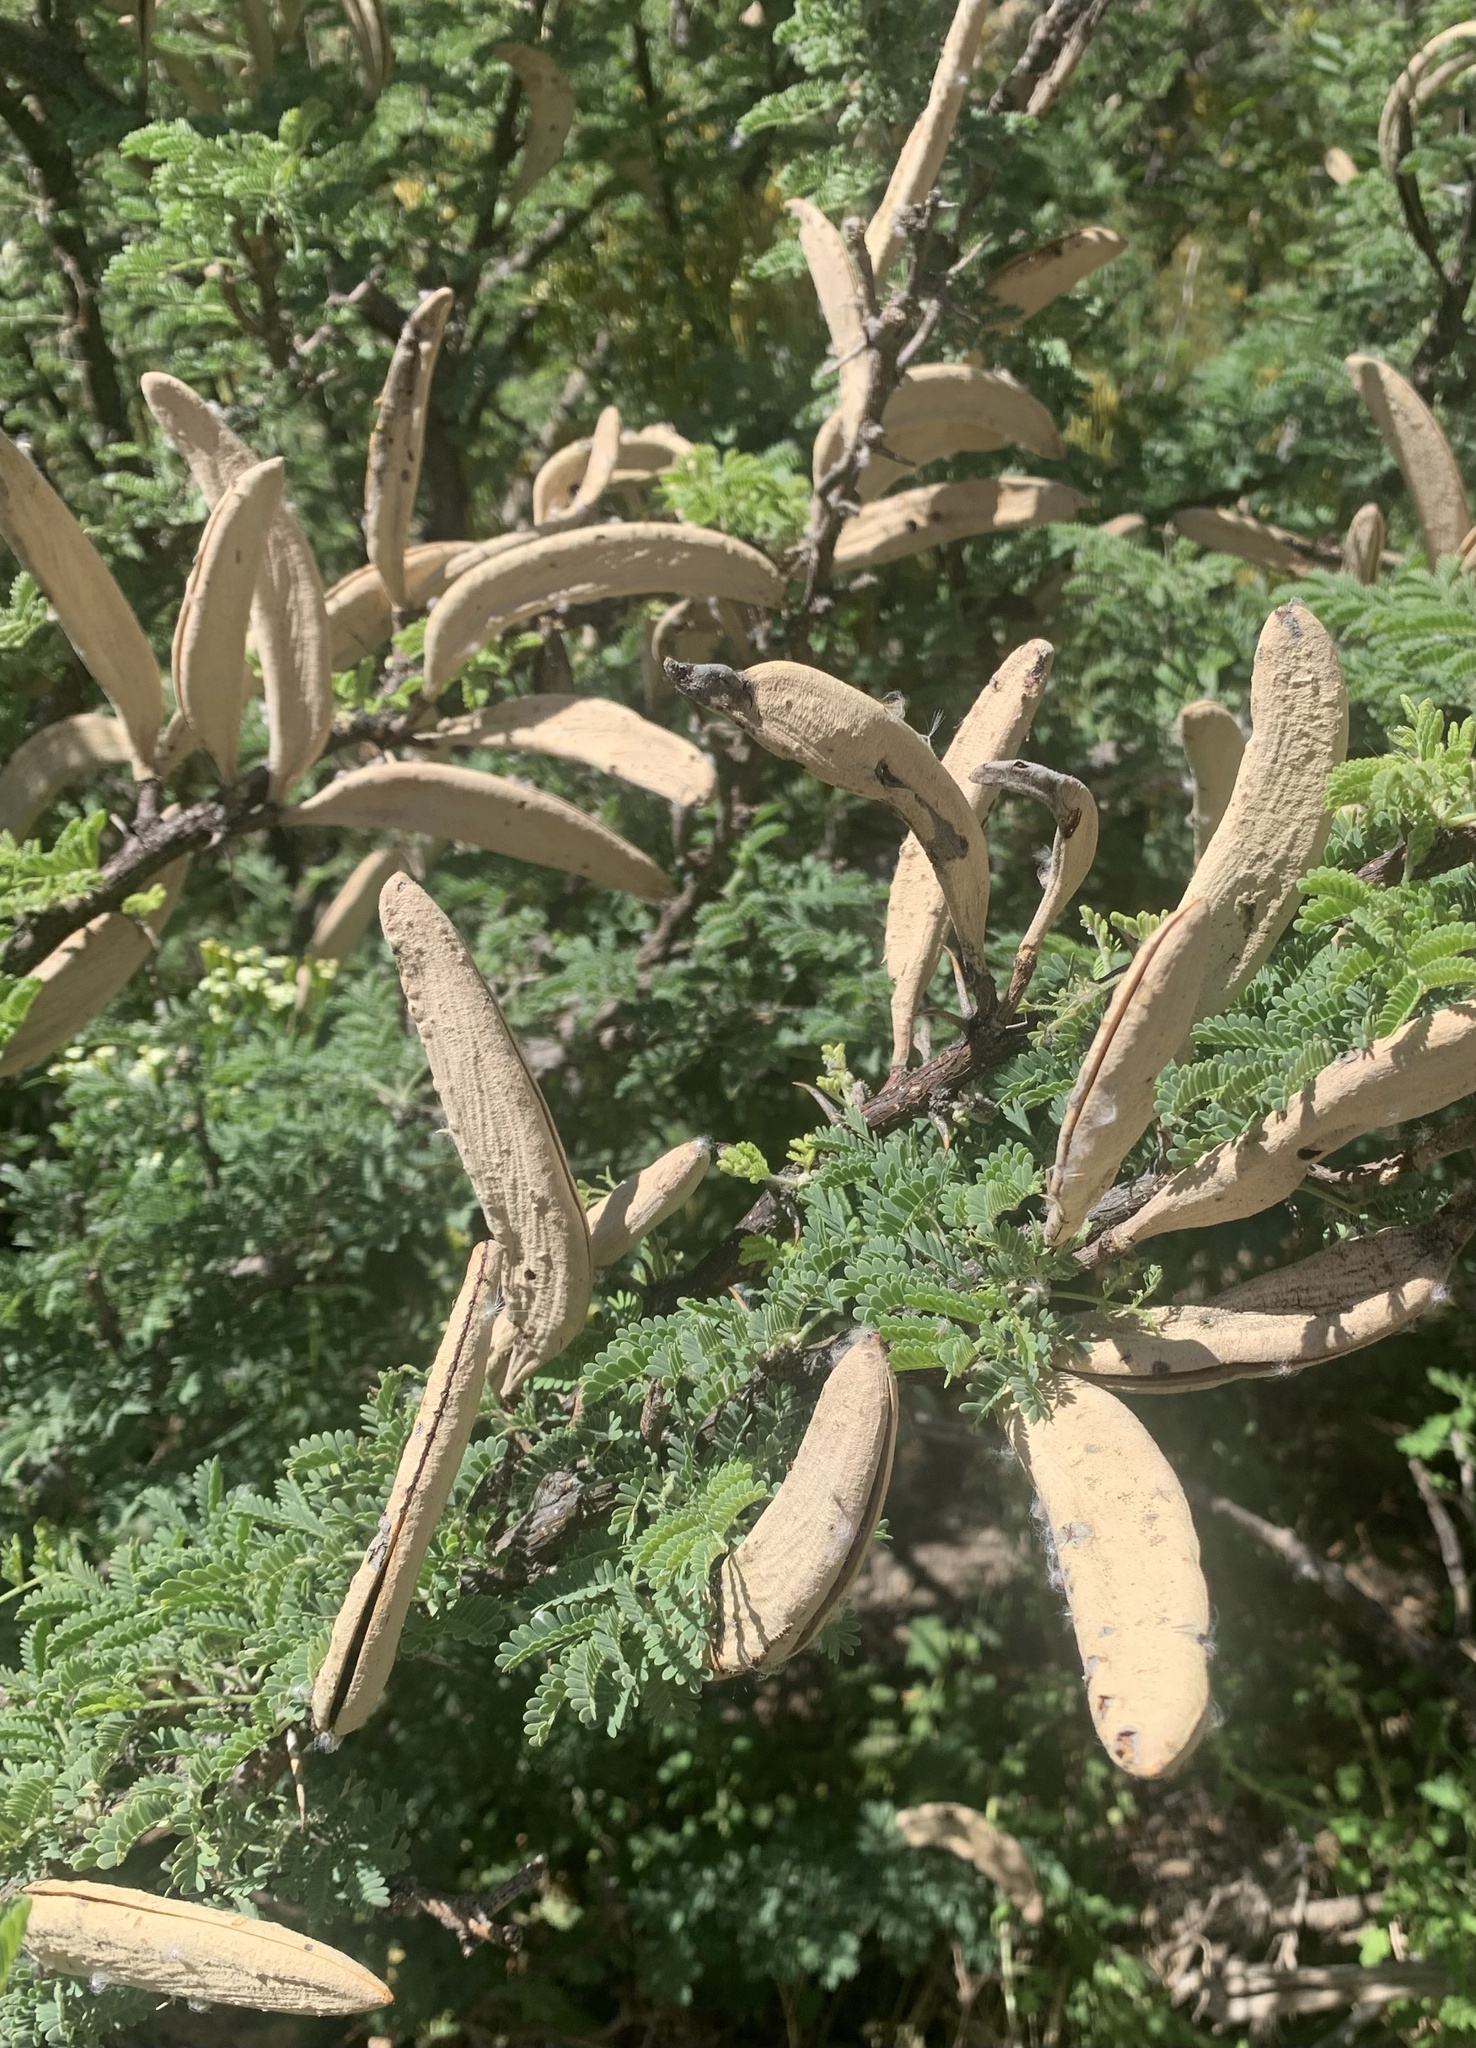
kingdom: Plantae
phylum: Tracheophyta
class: Magnoliopsida
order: Fabales
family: Fabaceae
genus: Vachellia
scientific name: Vachellia hebeclada
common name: Candle thorn
